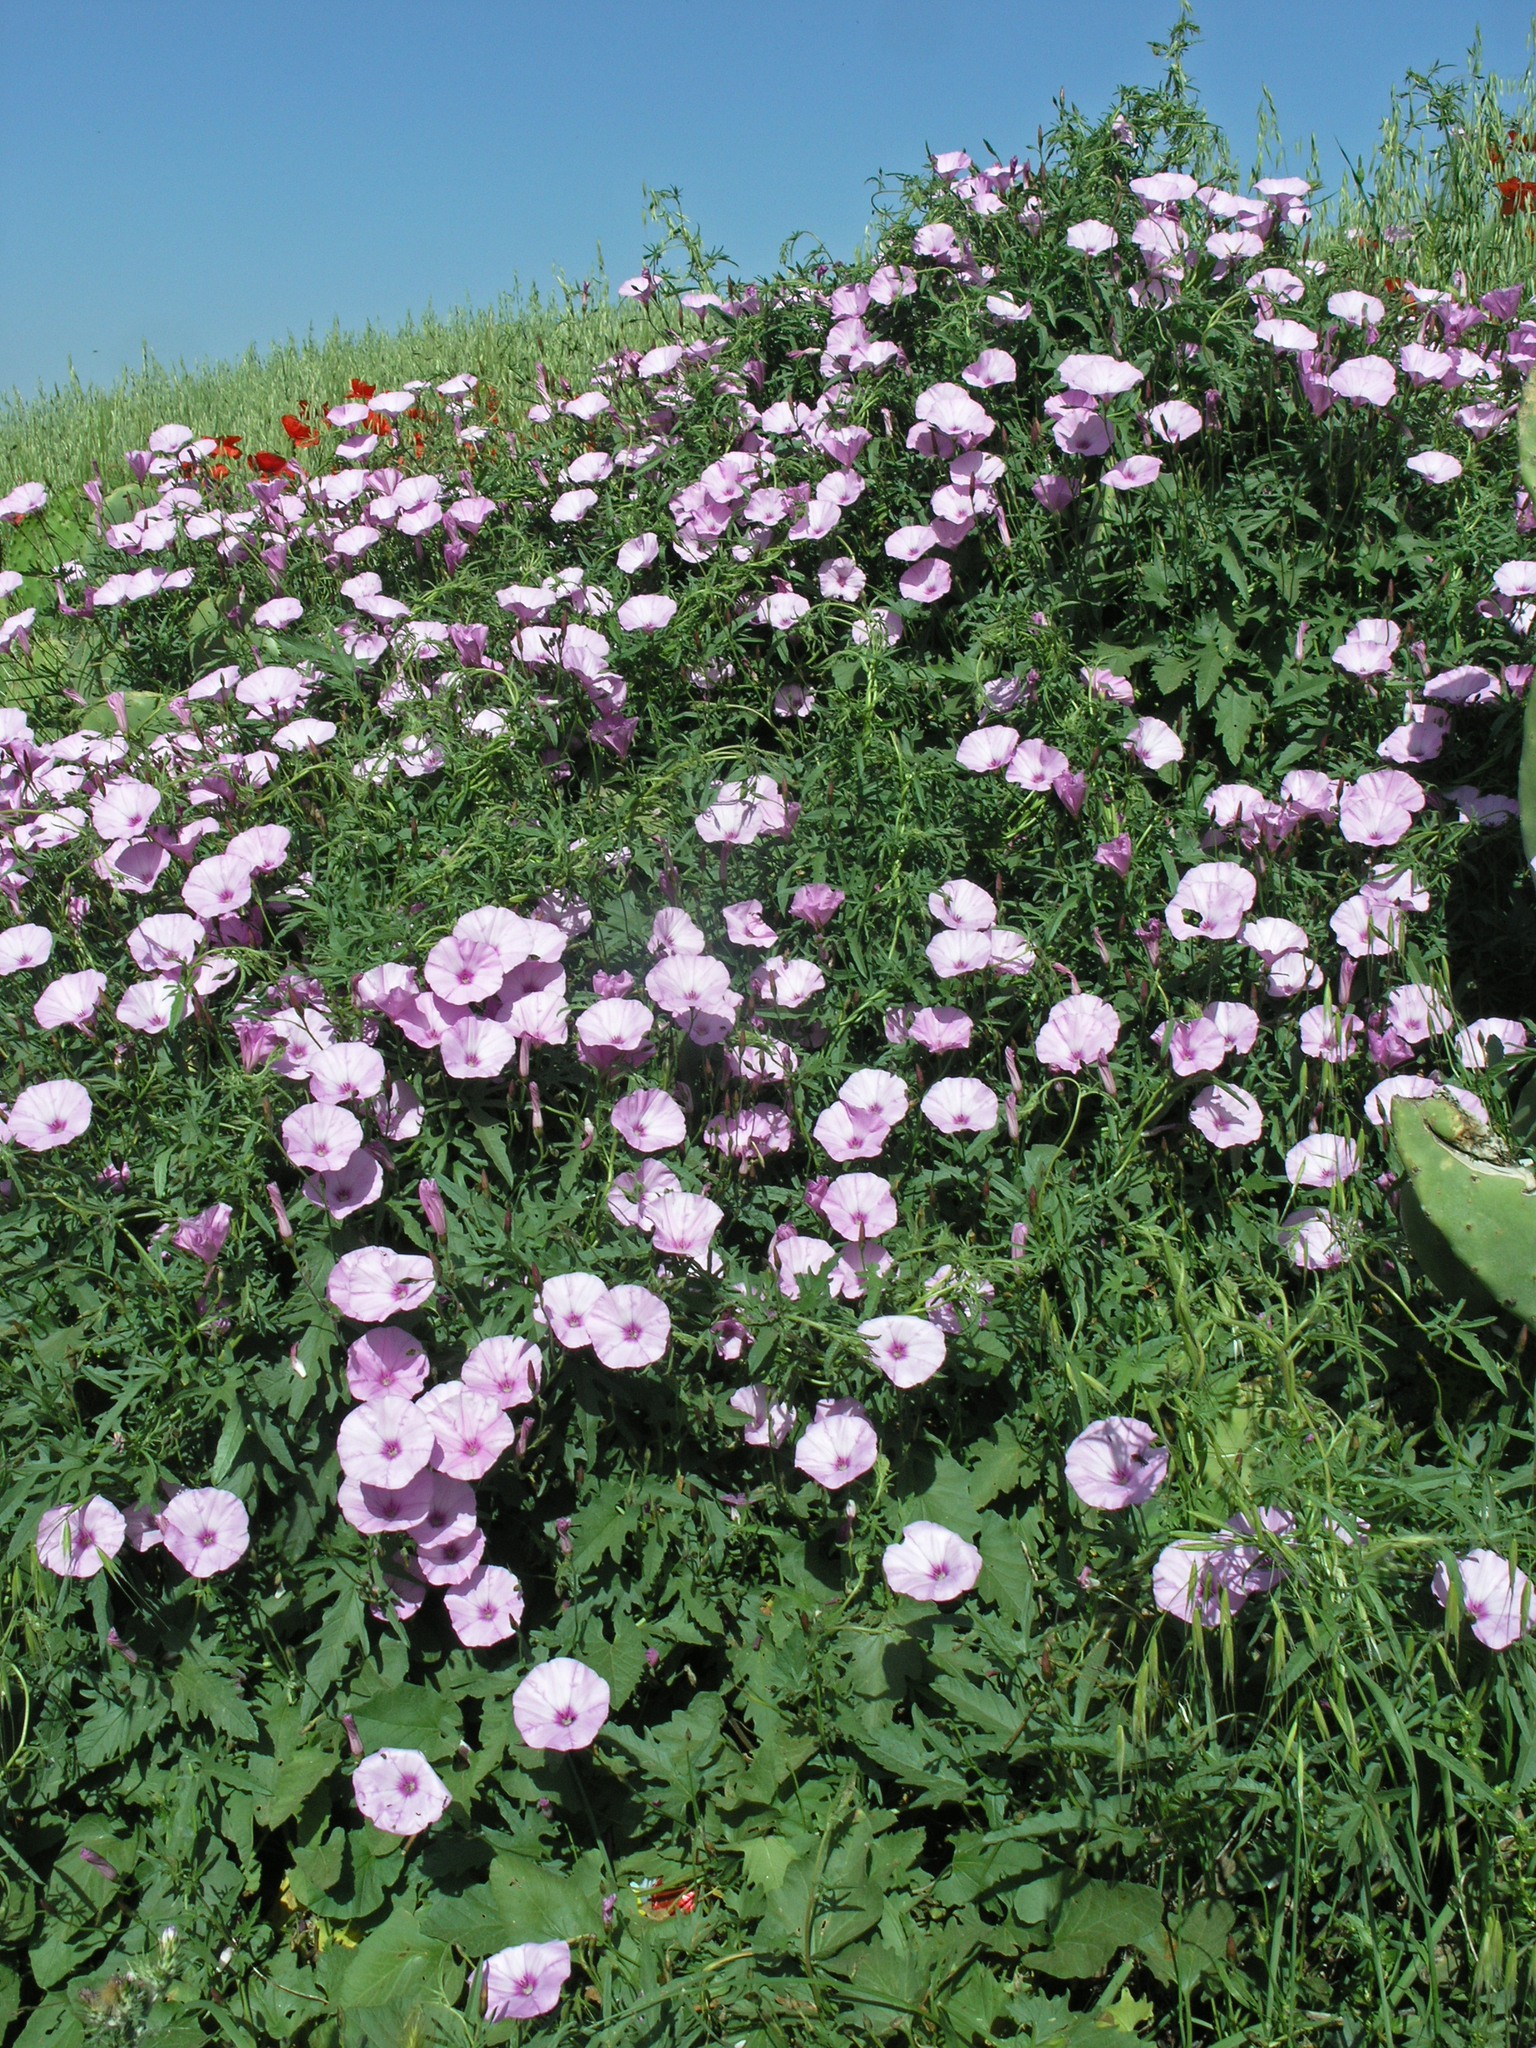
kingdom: Plantae
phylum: Tracheophyta
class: Magnoliopsida
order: Solanales
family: Convolvulaceae
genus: Convolvulus
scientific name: Convolvulus althaeoides
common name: Mallow bindweed
